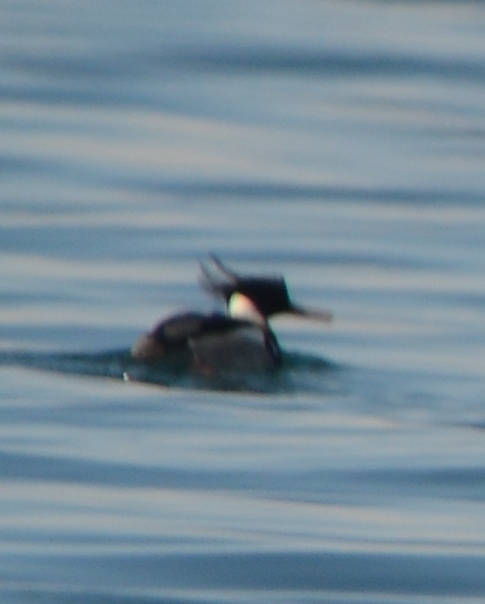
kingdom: Animalia
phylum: Chordata
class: Aves
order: Anseriformes
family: Anatidae
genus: Mergus
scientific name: Mergus serrator
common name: Red-breasted merganser
